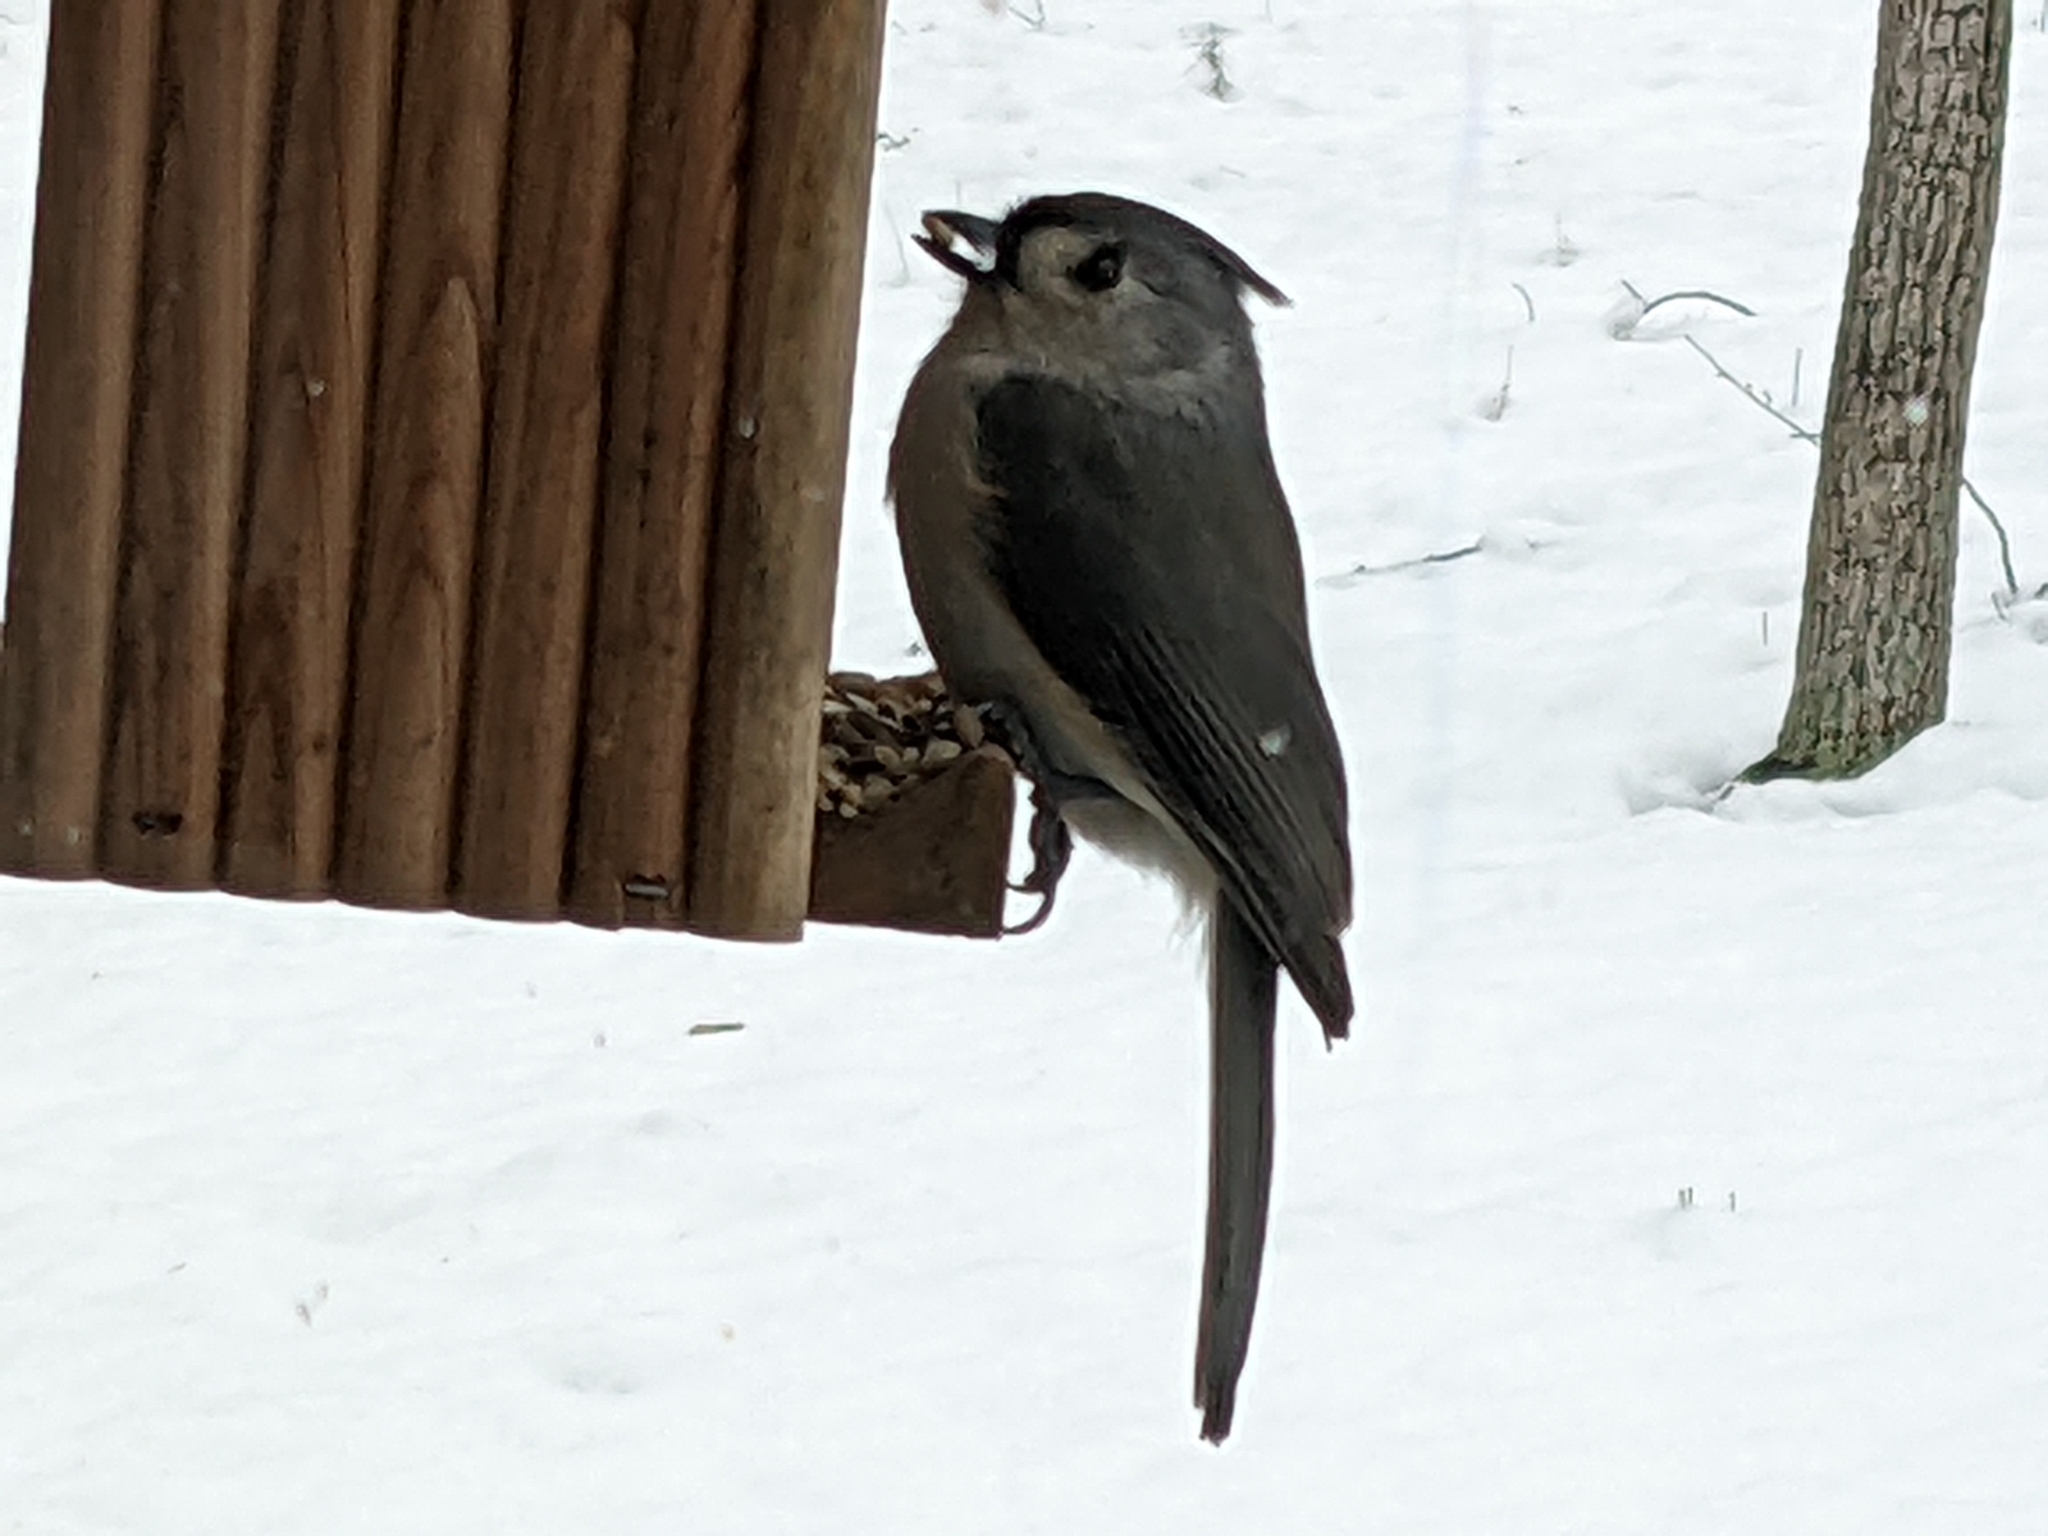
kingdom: Animalia
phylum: Chordata
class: Aves
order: Passeriformes
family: Paridae
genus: Baeolophus
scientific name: Baeolophus bicolor
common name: Tufted titmouse
